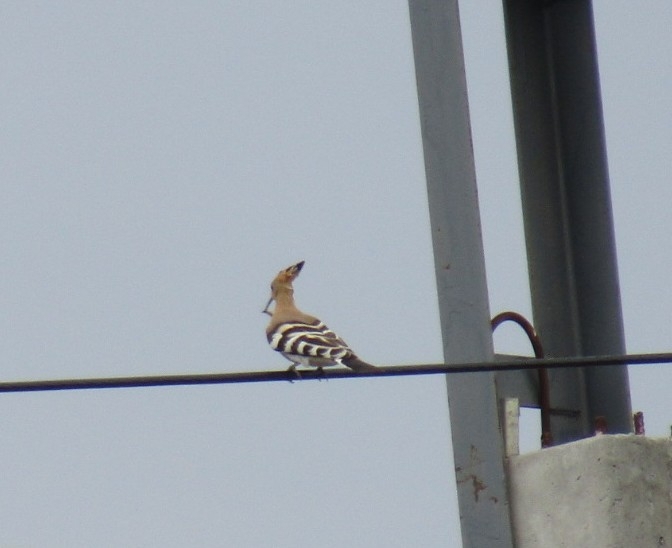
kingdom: Animalia
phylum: Chordata
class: Aves
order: Bucerotiformes
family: Upupidae
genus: Upupa
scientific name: Upupa epops
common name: Eurasian hoopoe
